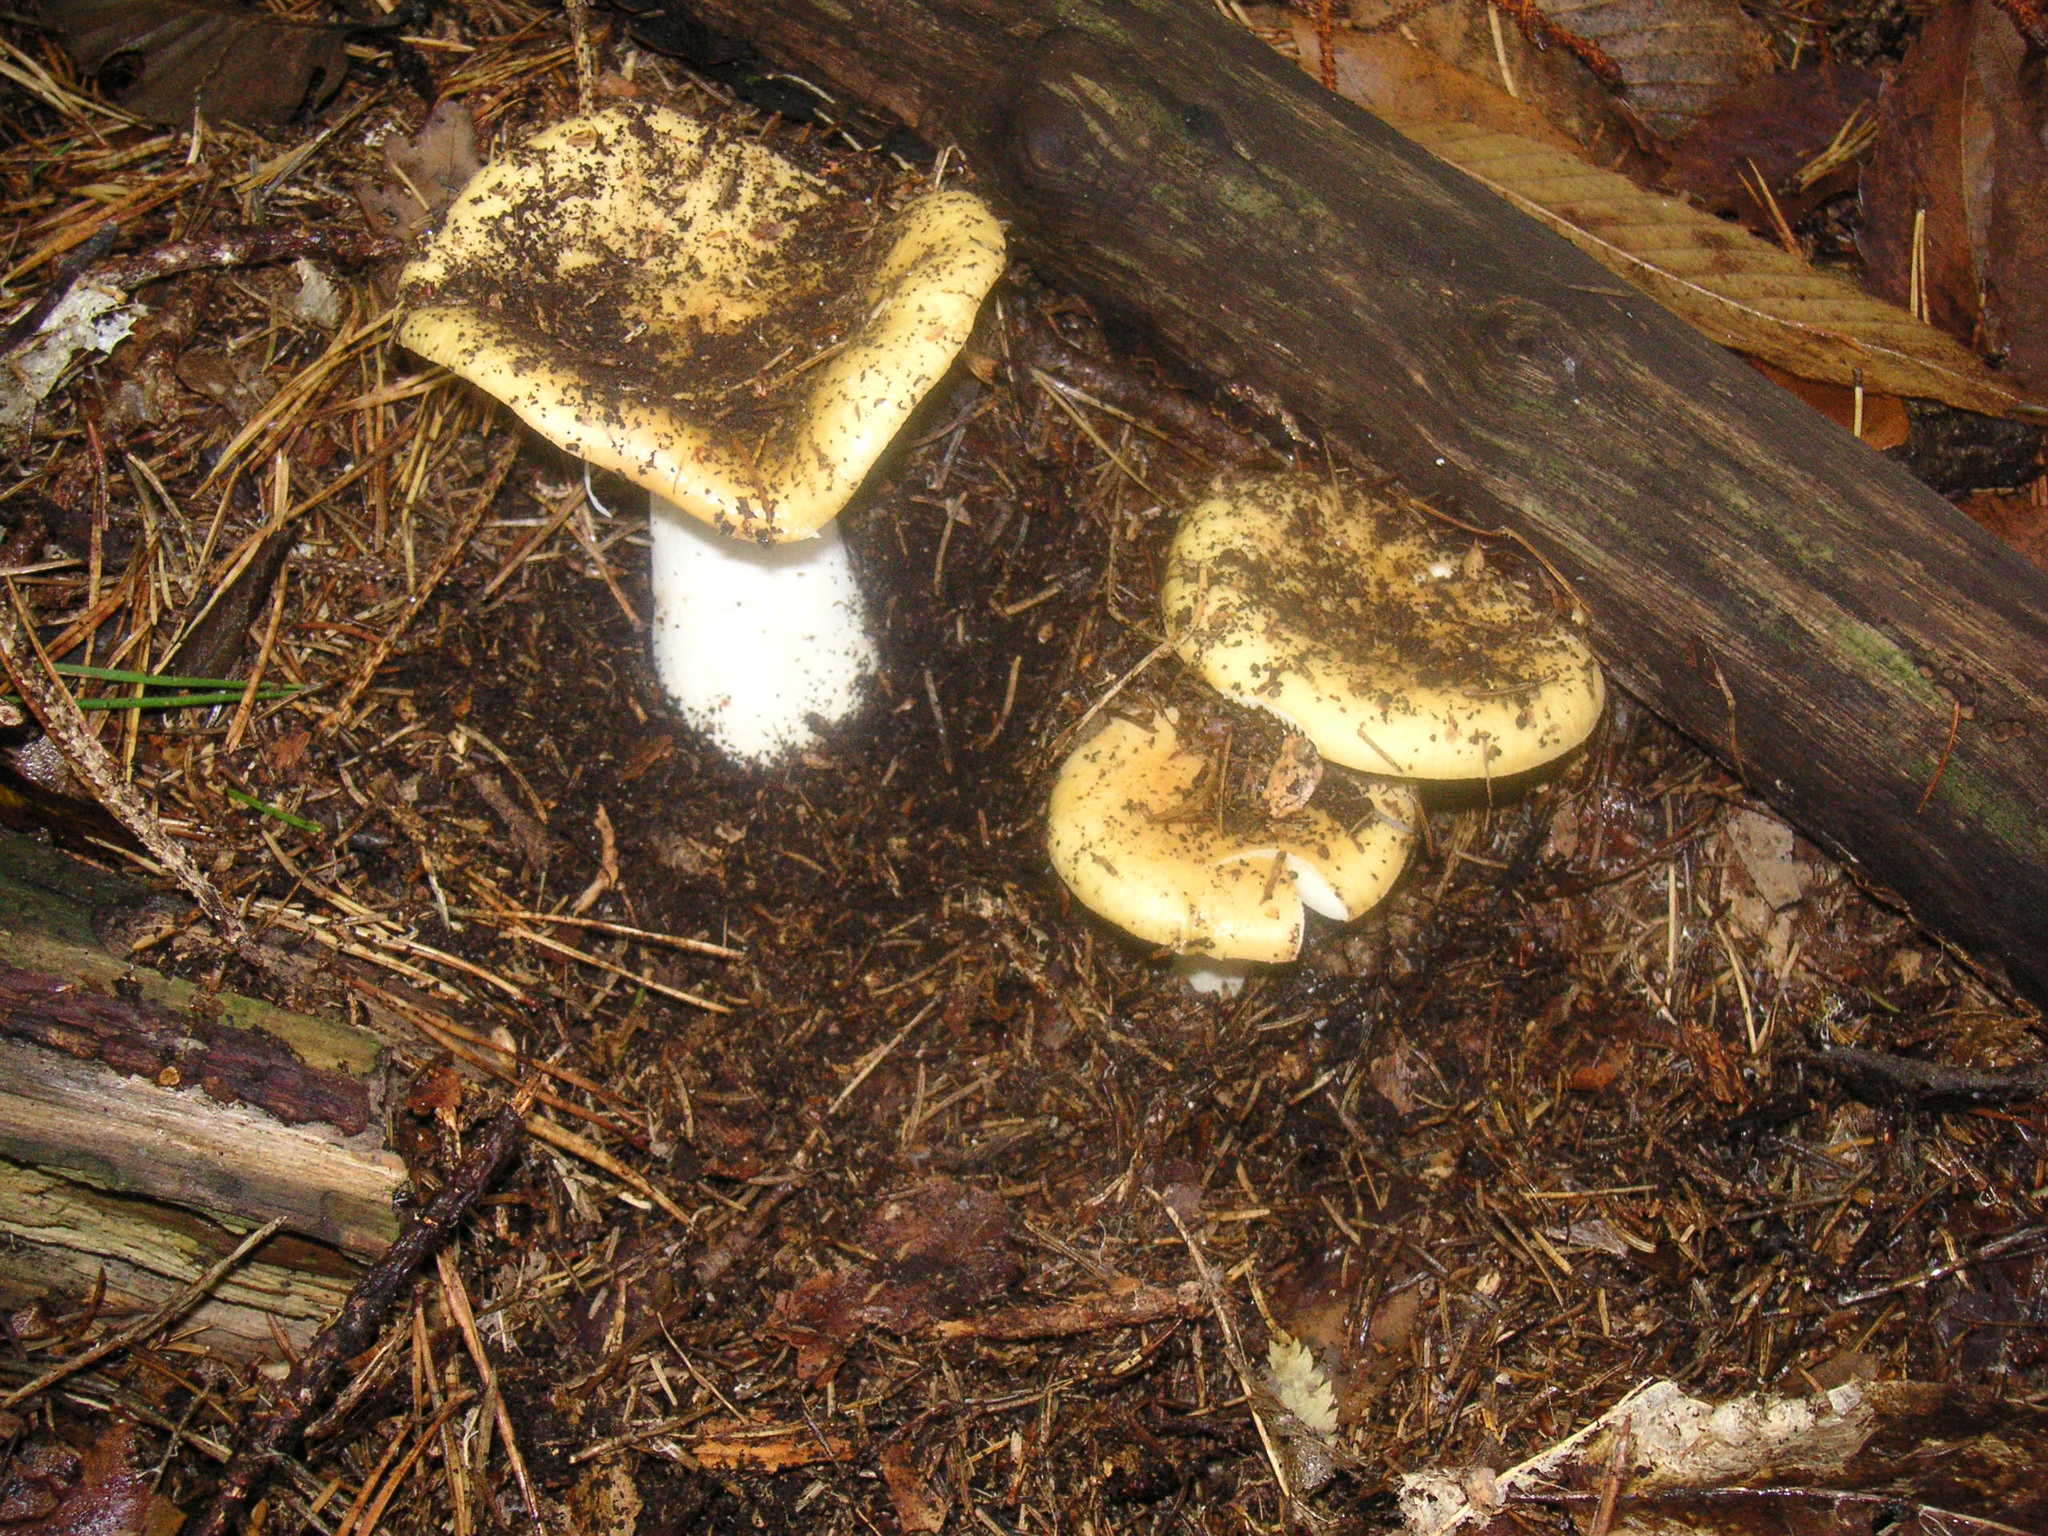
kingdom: Fungi
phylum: Basidiomycota
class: Agaricomycetes
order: Russulales
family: Russulaceae
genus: Russula
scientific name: Russula ochroleuca
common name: Common yellow russula
